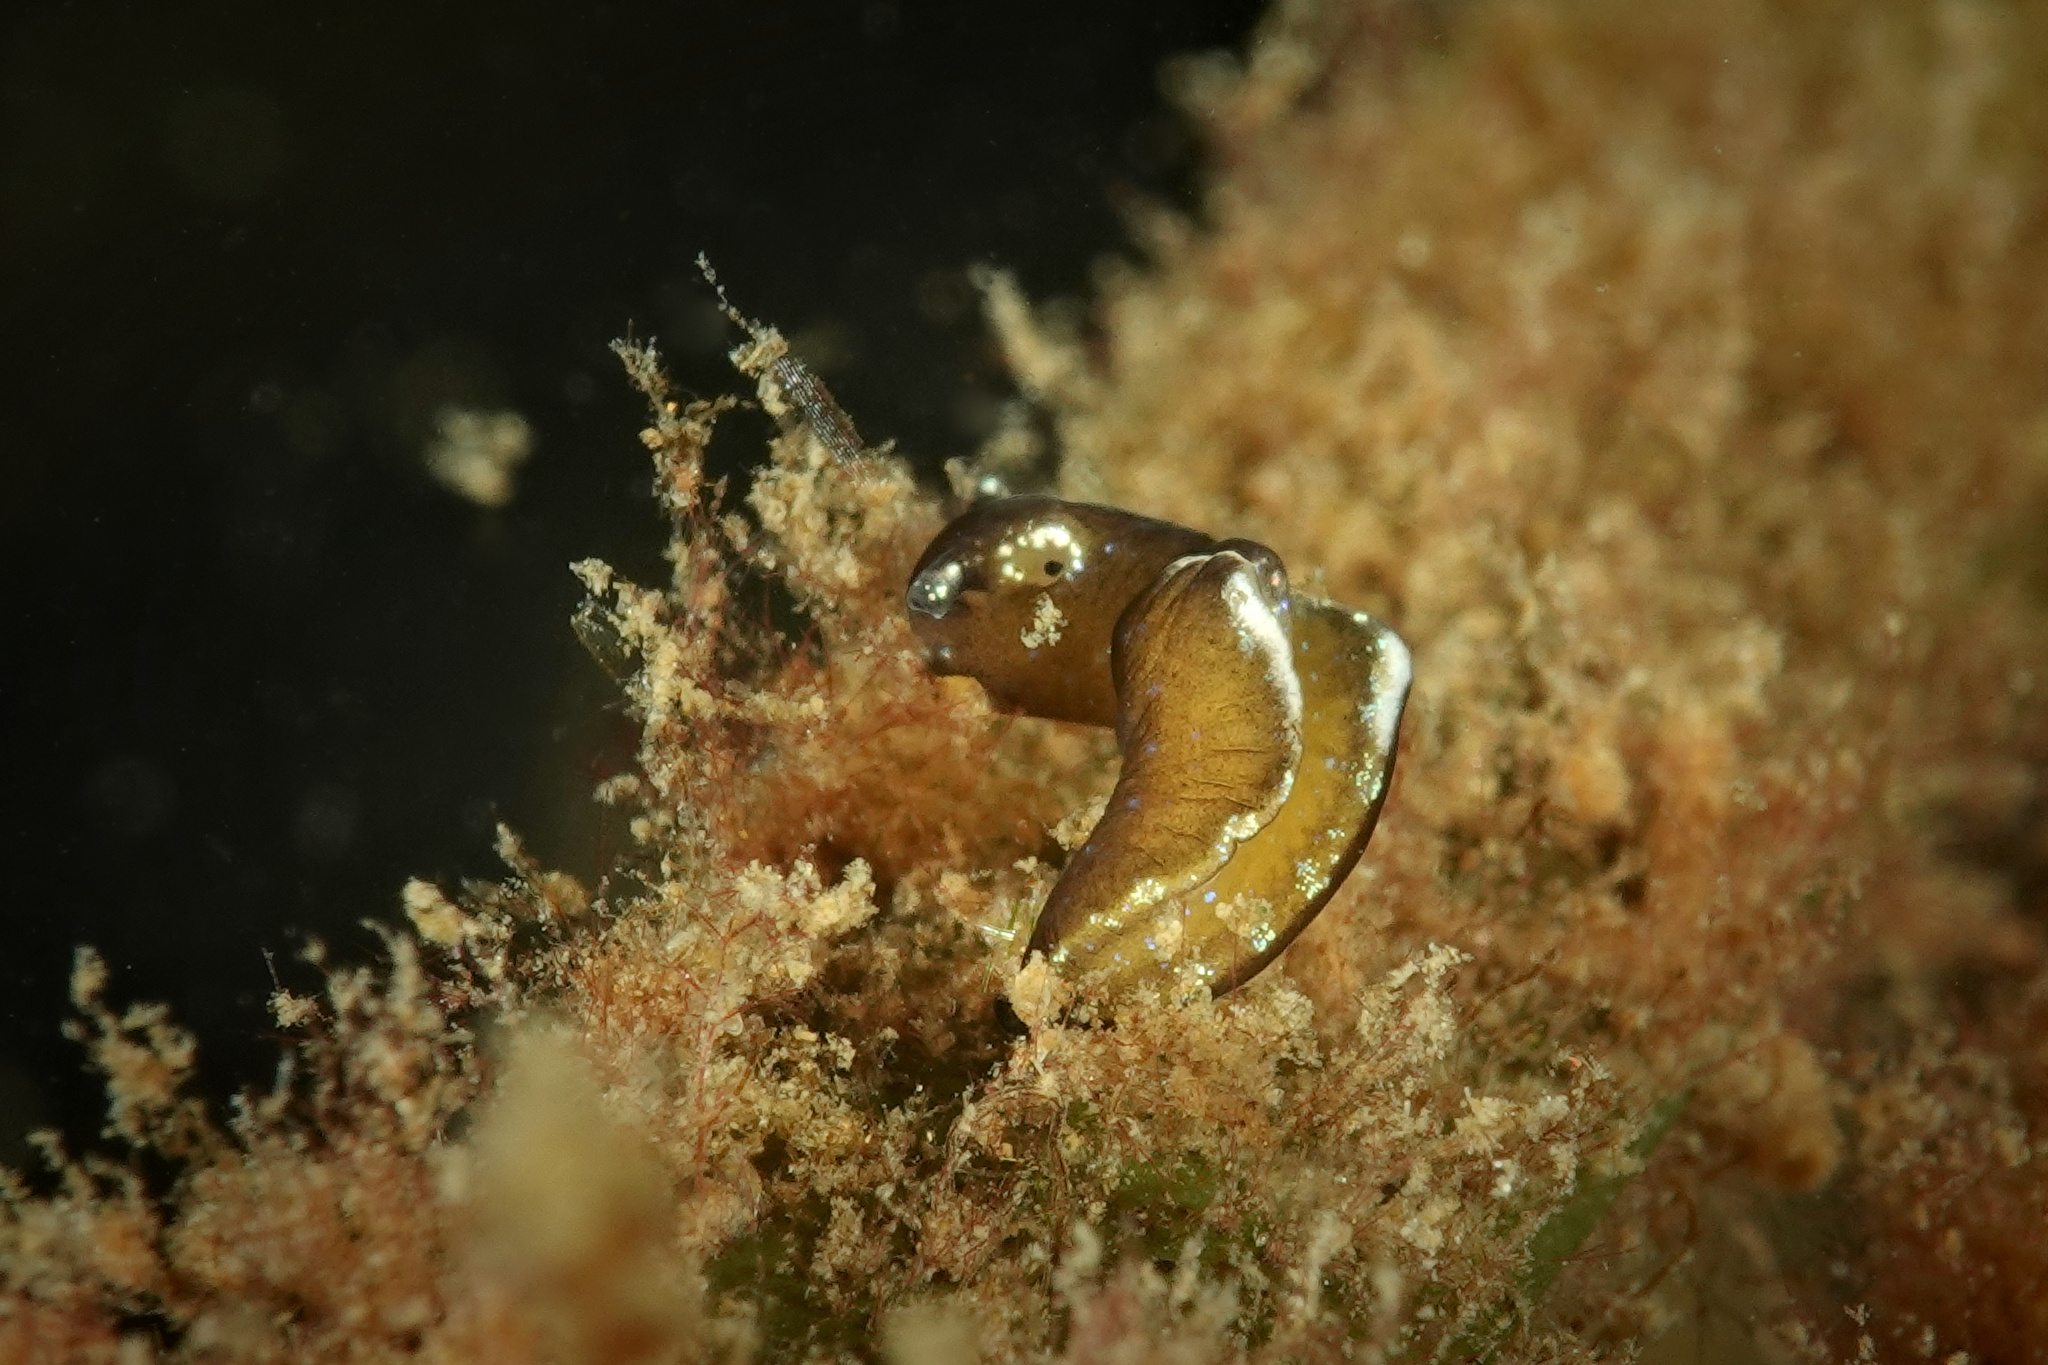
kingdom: Animalia
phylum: Mollusca
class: Gastropoda
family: Plakobranchidae
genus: Elysia
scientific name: Elysia viridis
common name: Green elysia
